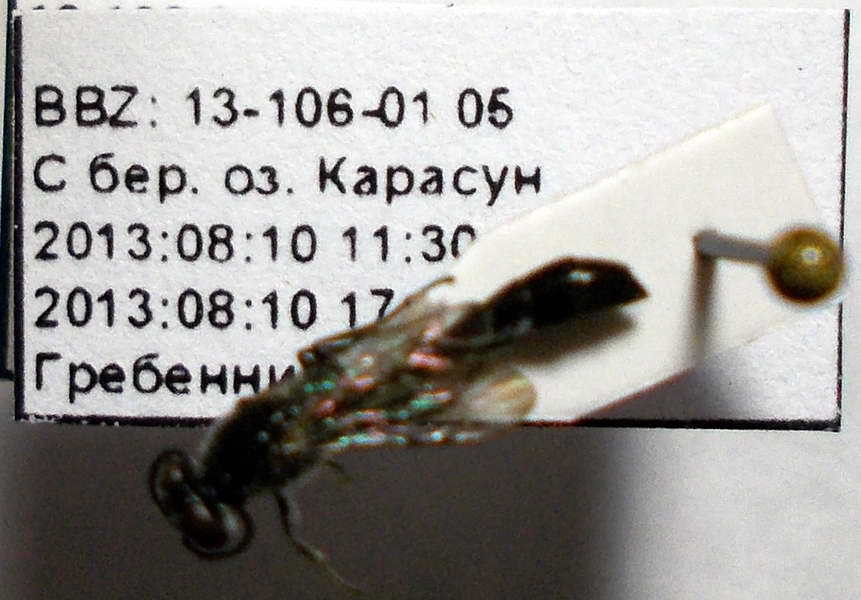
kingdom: Animalia
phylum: Arthropoda
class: Insecta
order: Hymenoptera
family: Crabronidae
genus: Trypoxylon
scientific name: Trypoxylon scutatum
